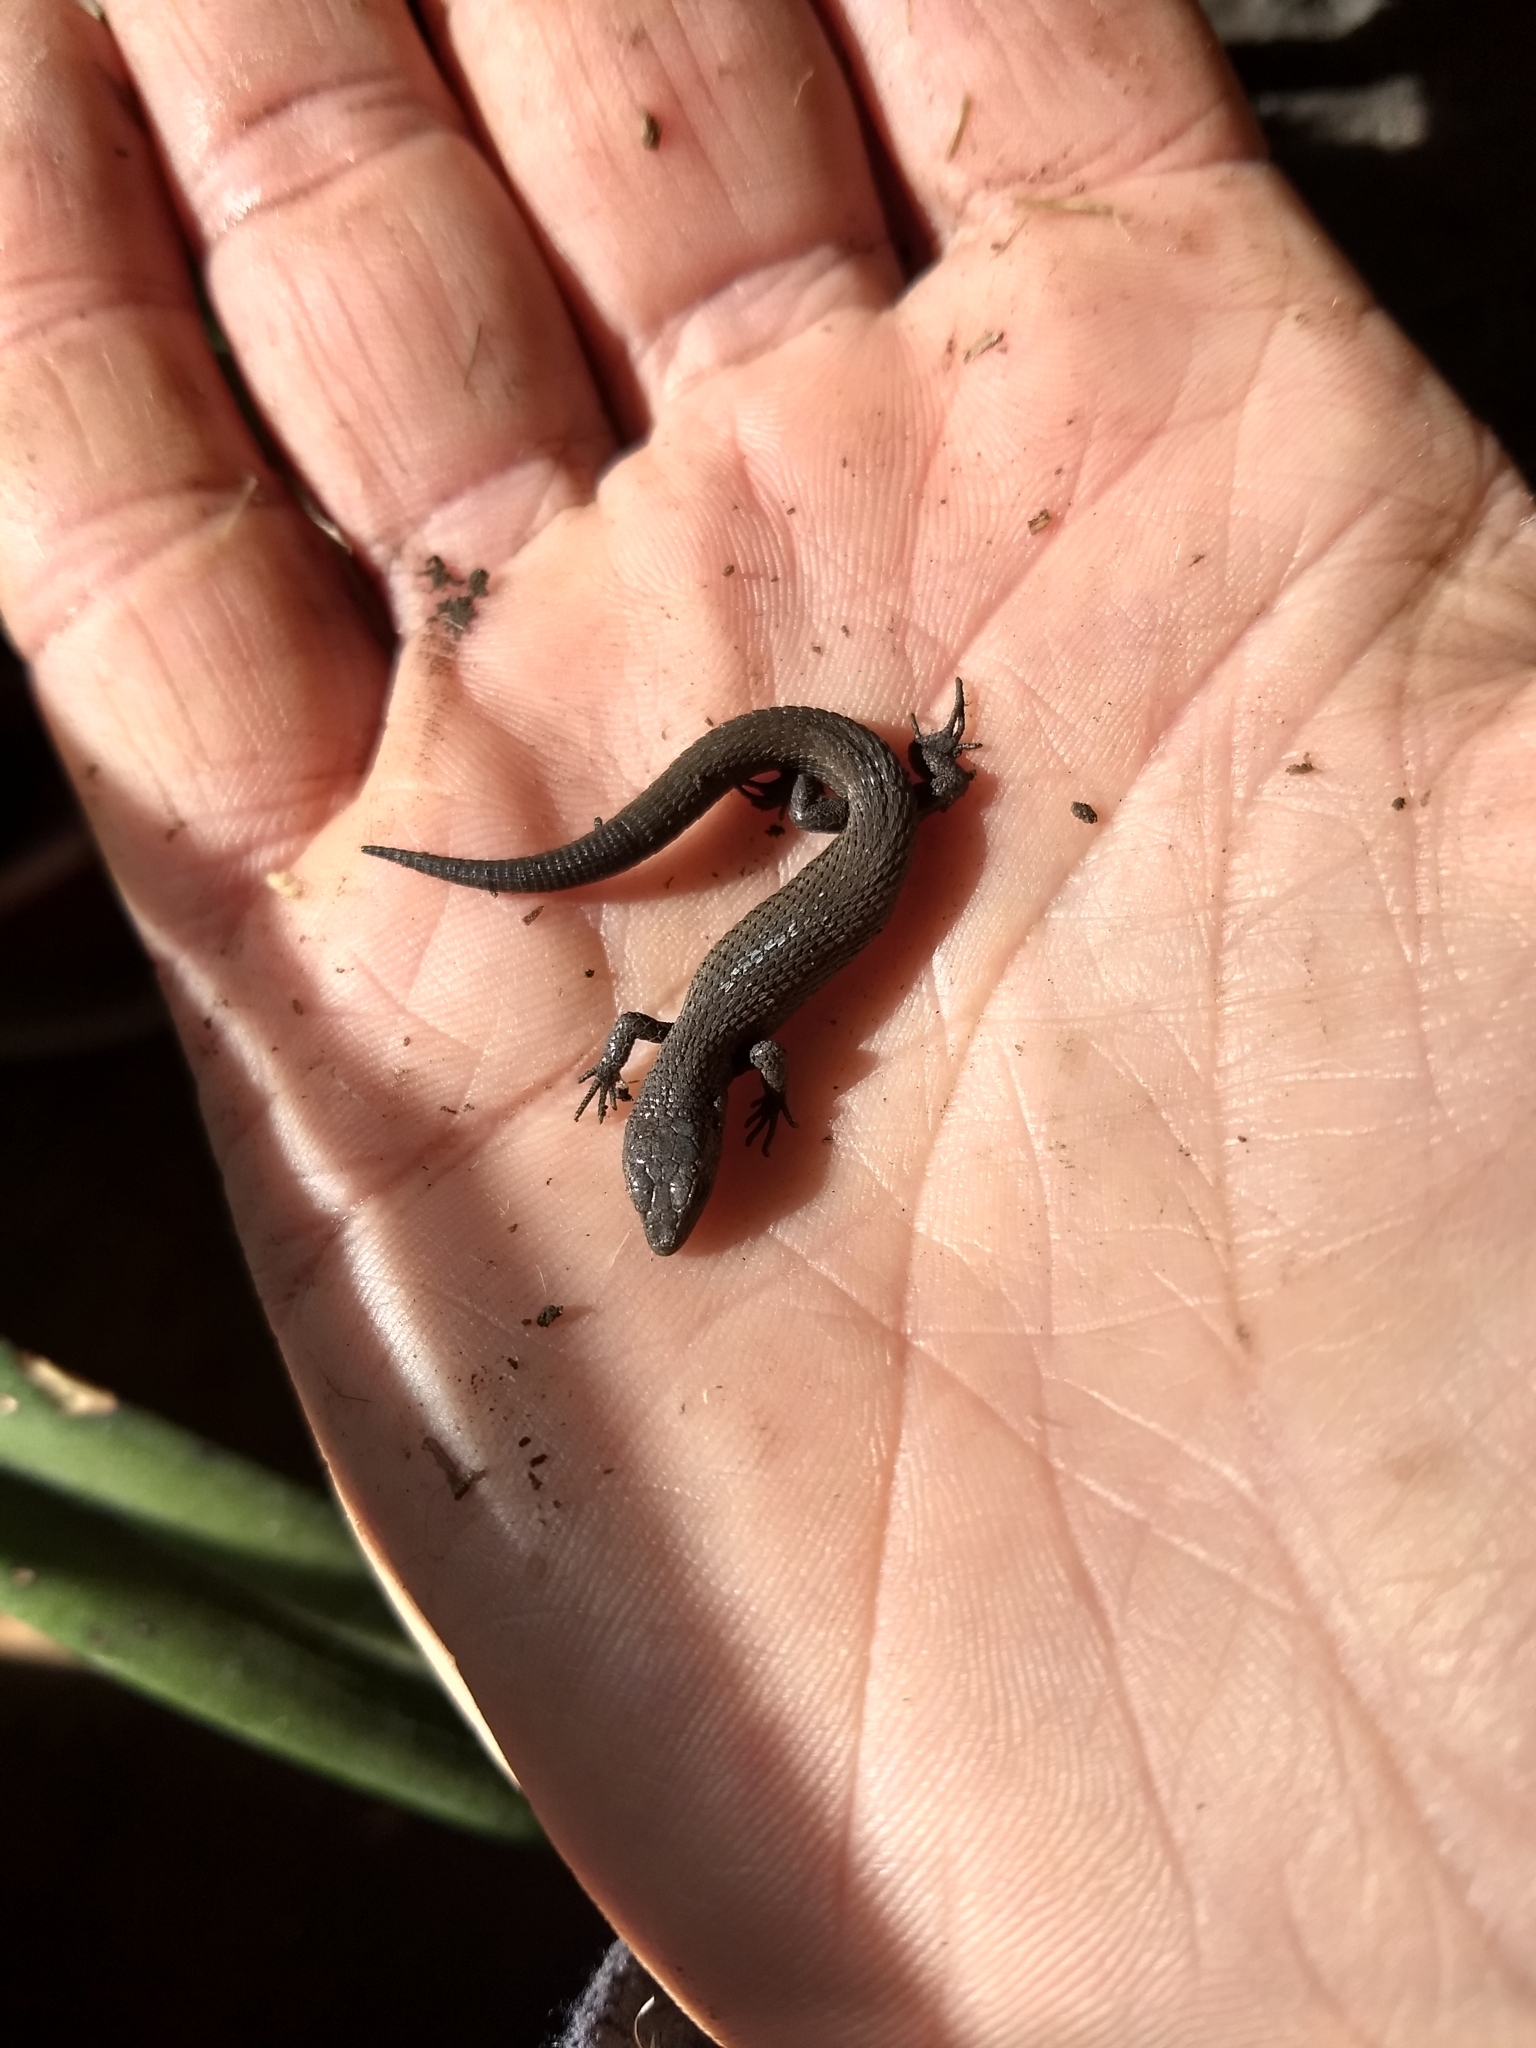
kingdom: Animalia
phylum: Chordata
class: Squamata
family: Gymnophthalmidae
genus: Cercosaura
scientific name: Cercosaura schreibersii
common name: Schreibers' many-fingered teiid
